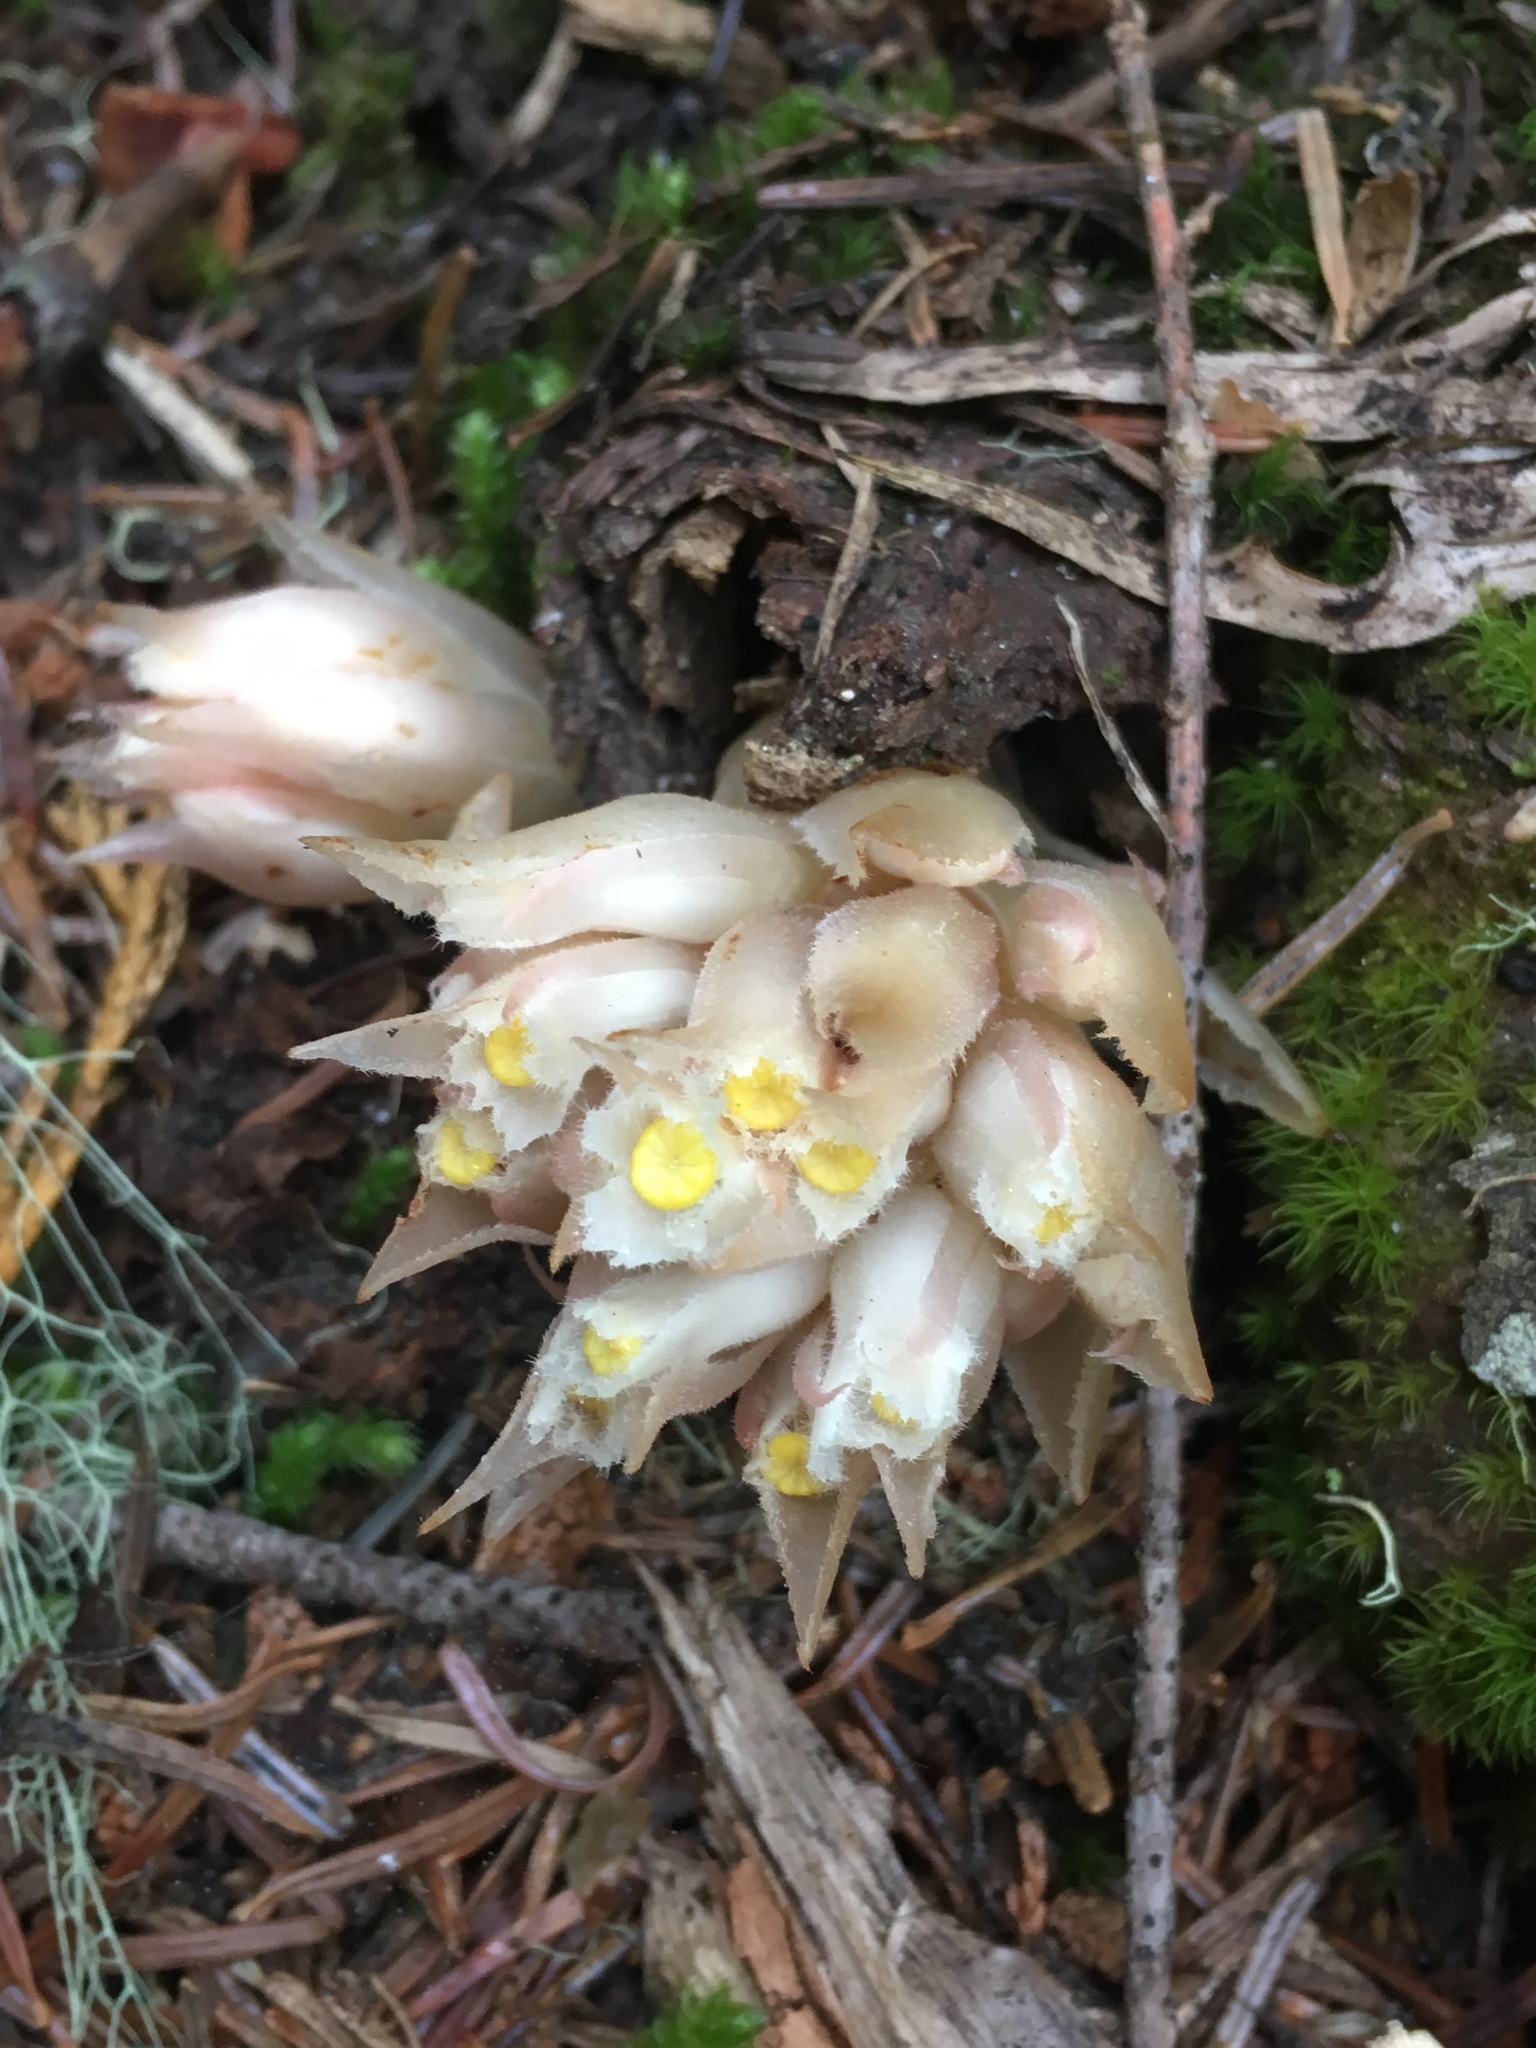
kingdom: Plantae
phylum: Tracheophyta
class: Magnoliopsida
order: Ericales
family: Ericaceae
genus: Hemitomes
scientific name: Hemitomes congestum
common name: Cone plant
